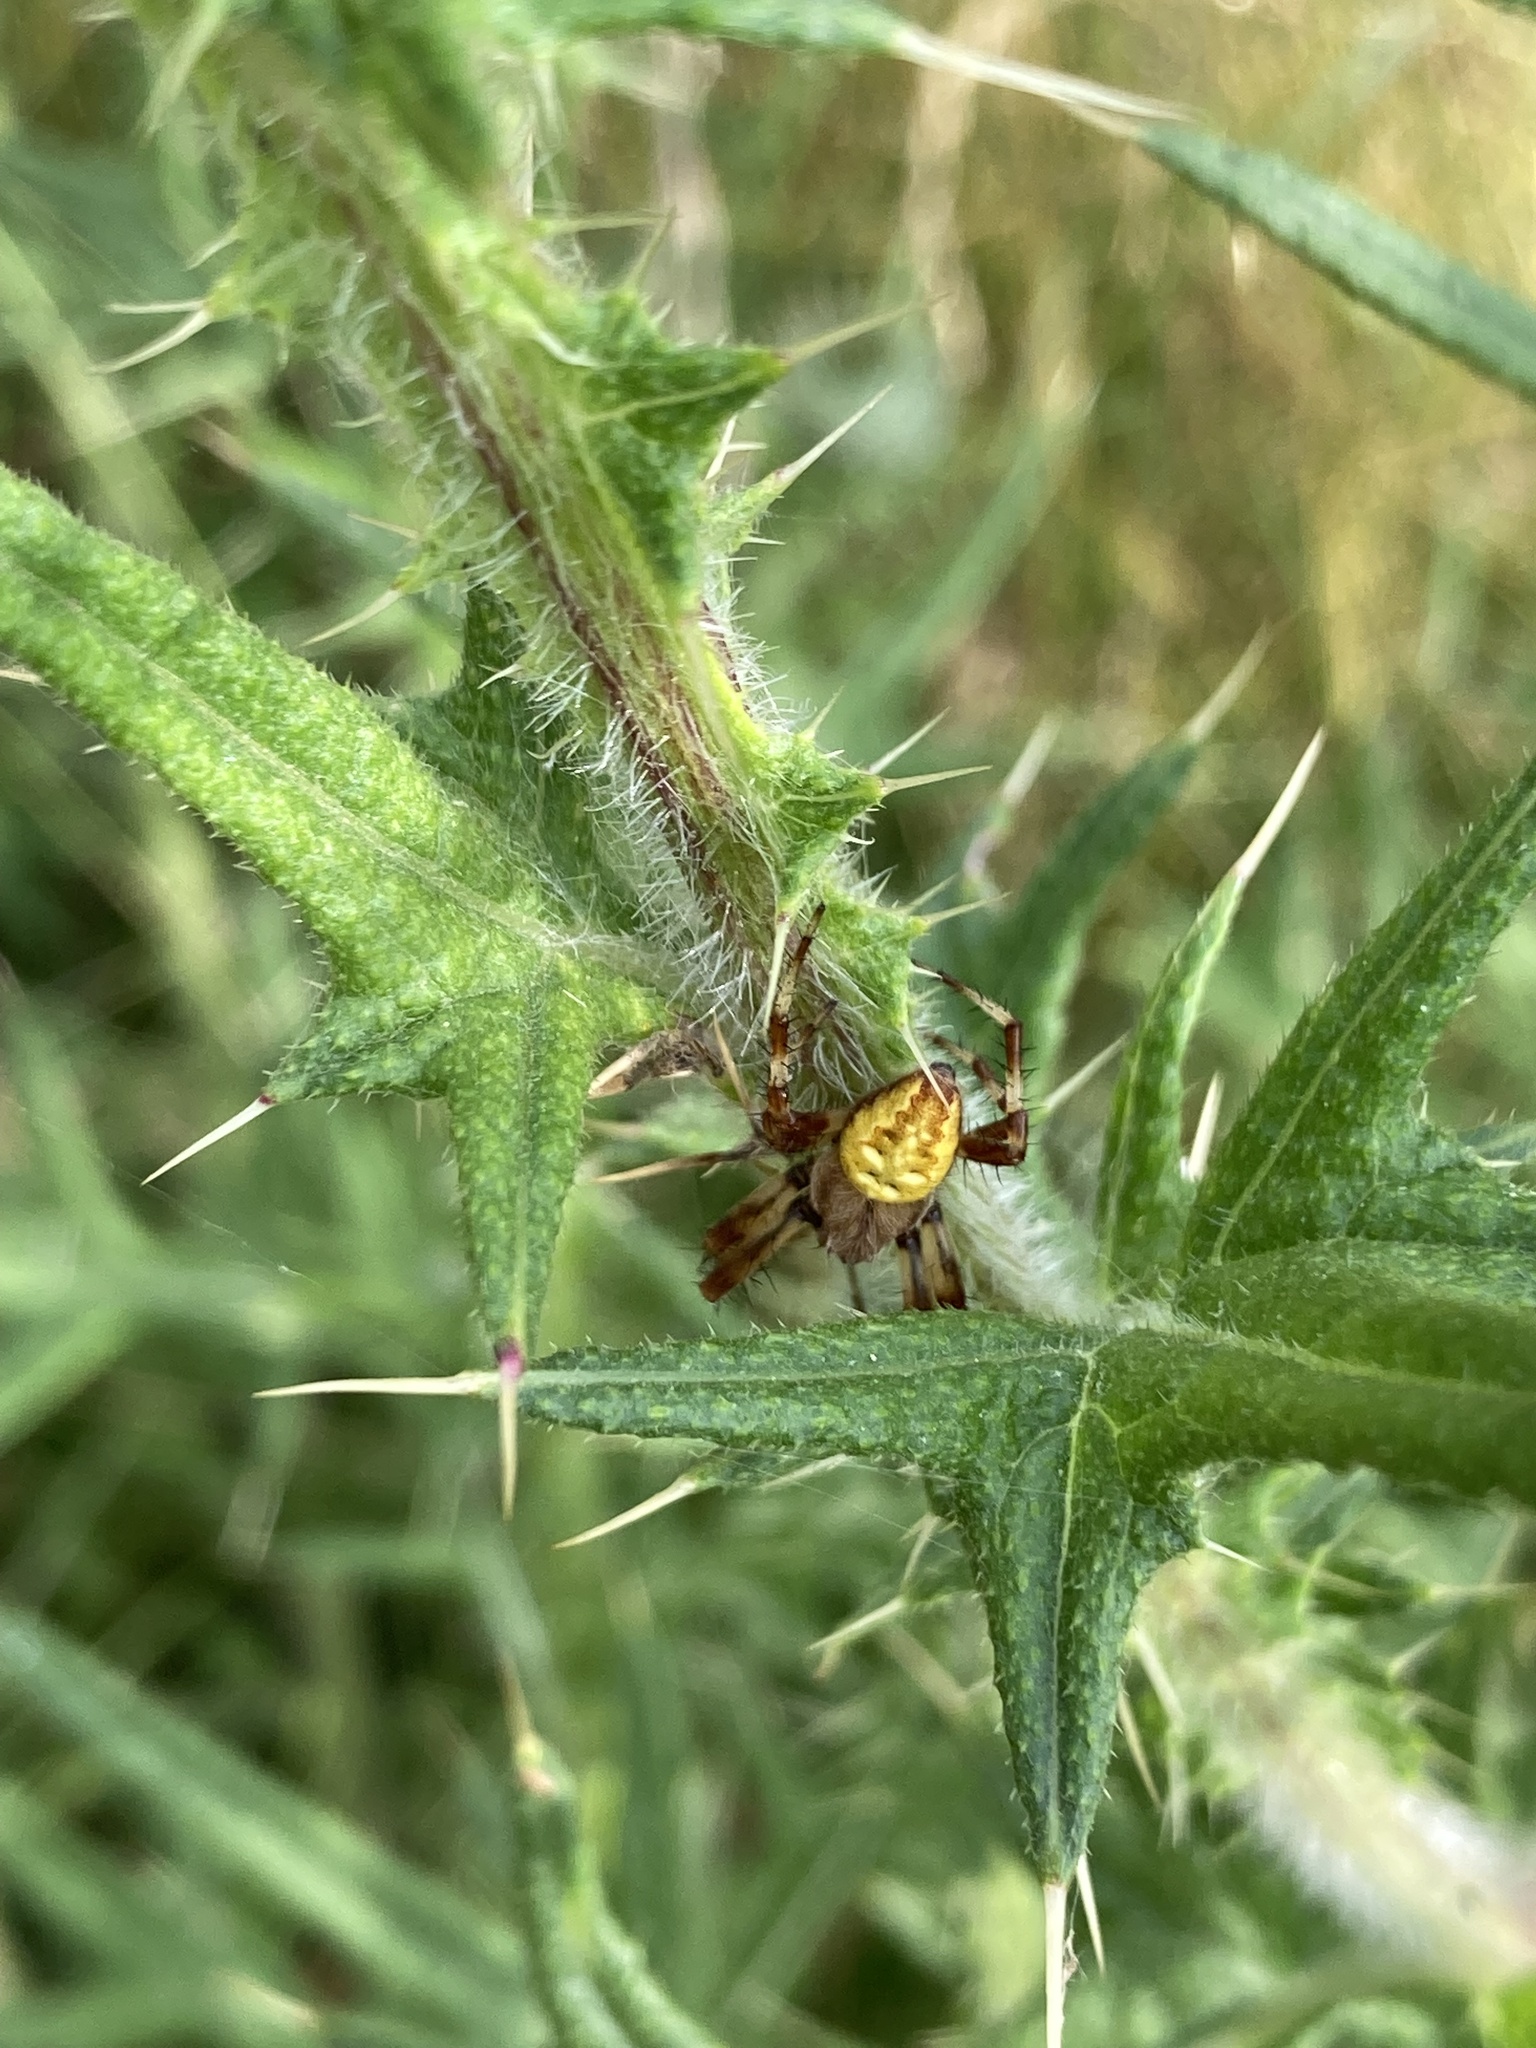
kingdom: Animalia
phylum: Arthropoda
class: Arachnida
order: Araneae
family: Araneidae
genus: Araneus
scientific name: Araneus quadratus
